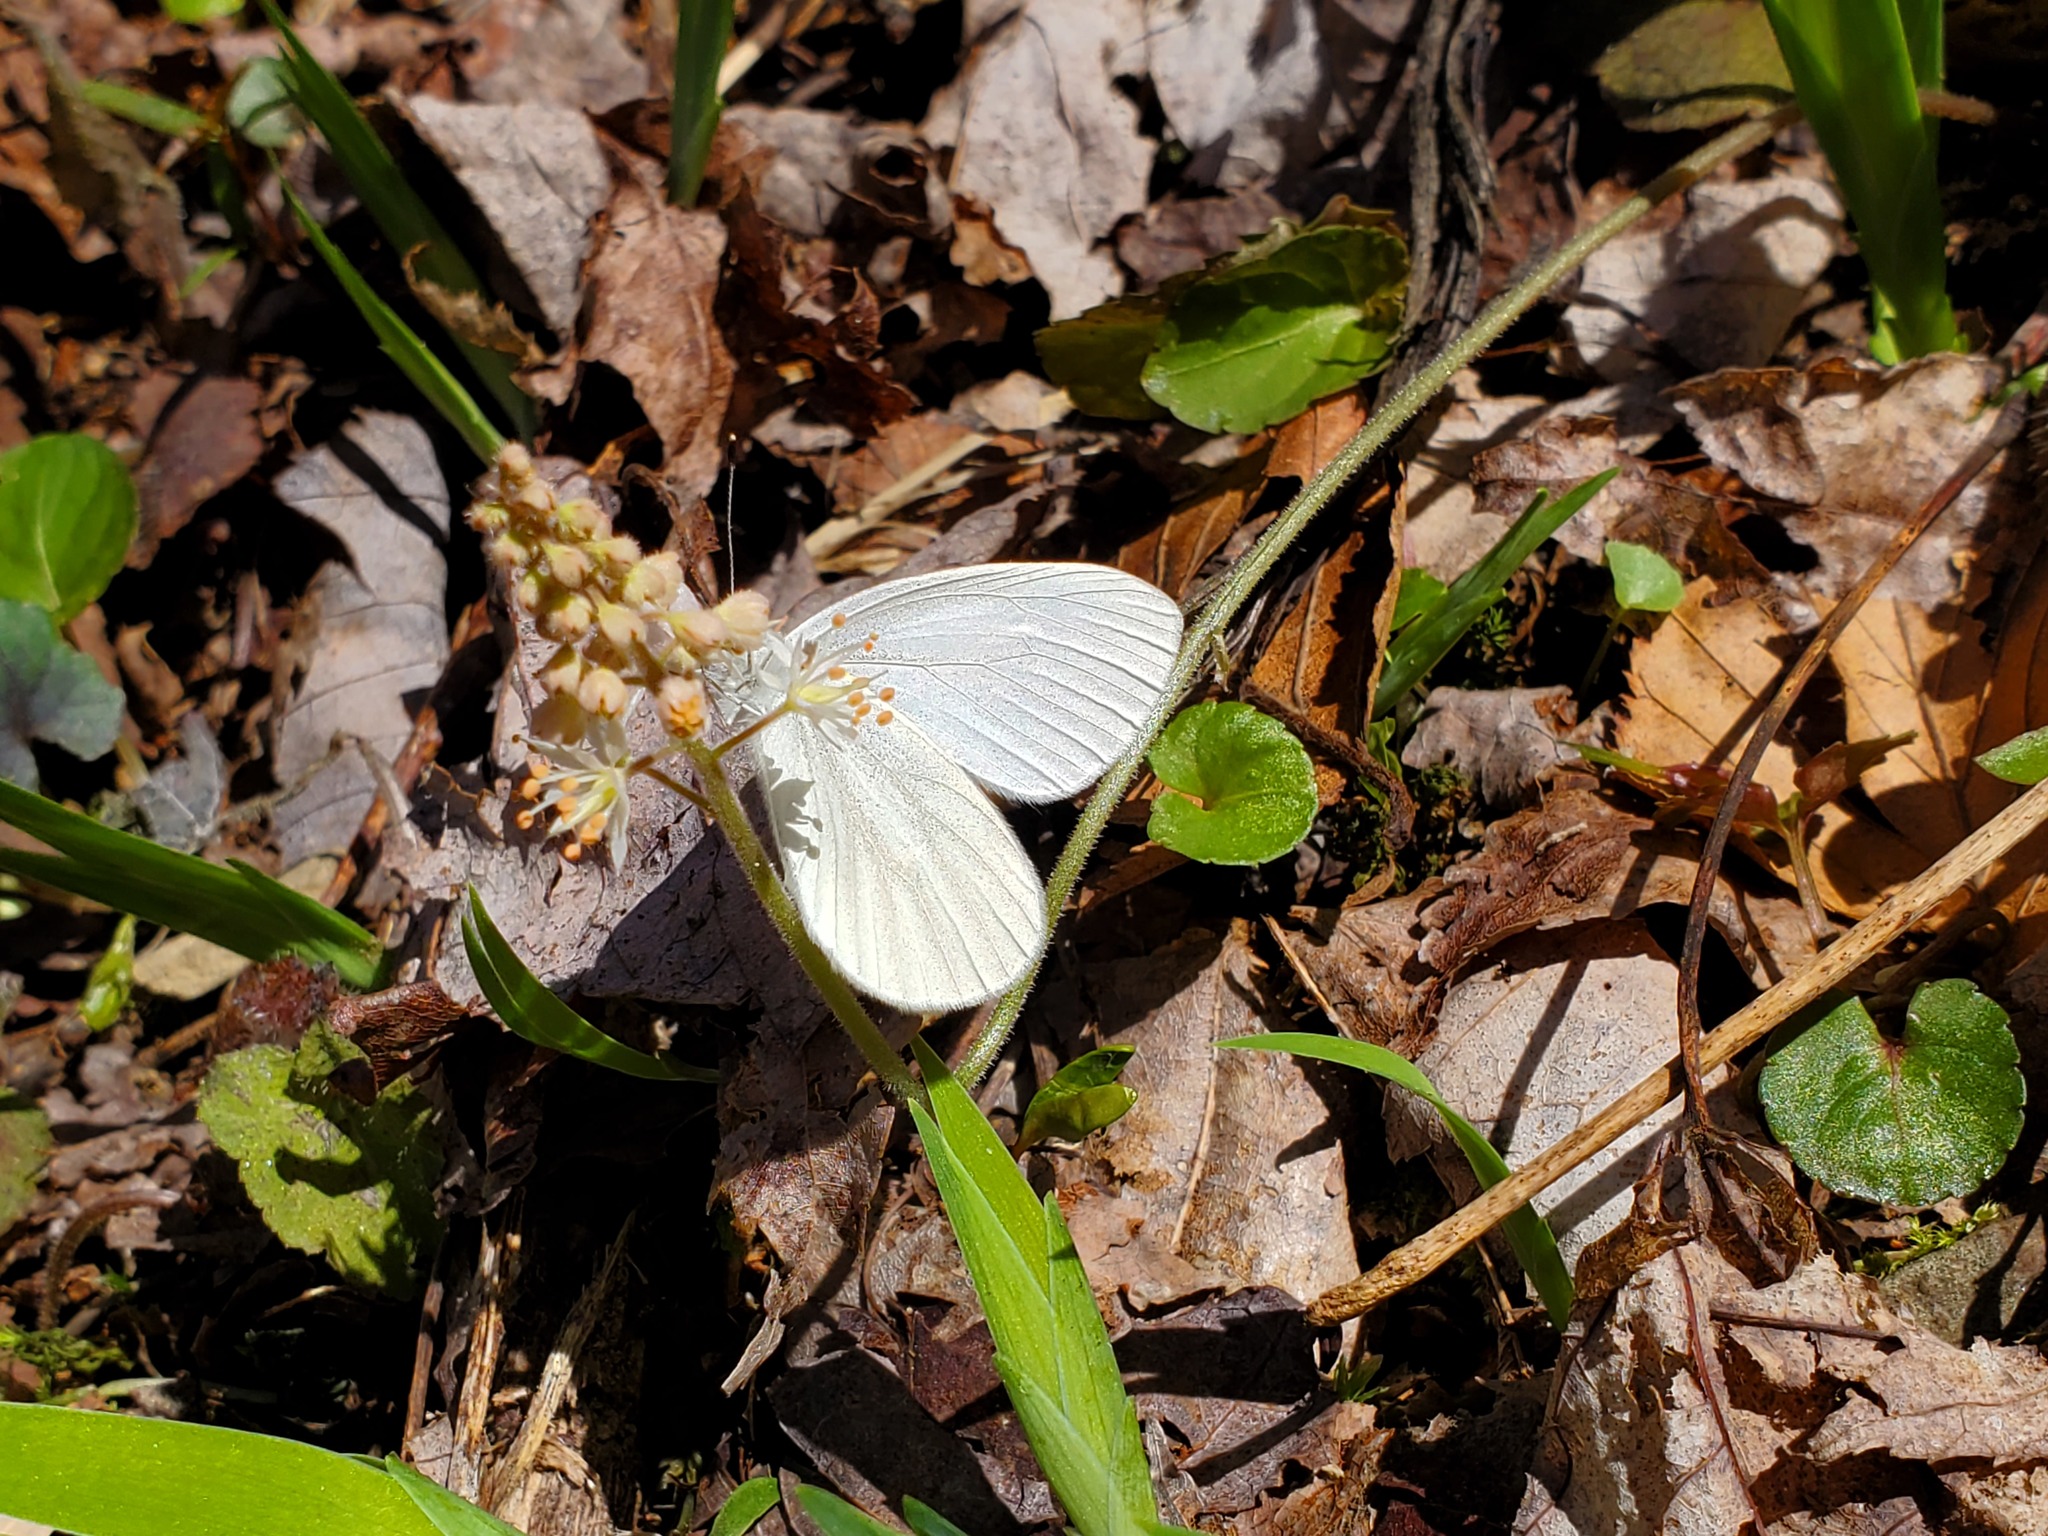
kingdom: Animalia
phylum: Arthropoda
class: Insecta
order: Lepidoptera
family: Pieridae
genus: Pieris
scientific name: Pieris virginiensis
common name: West virginia white
